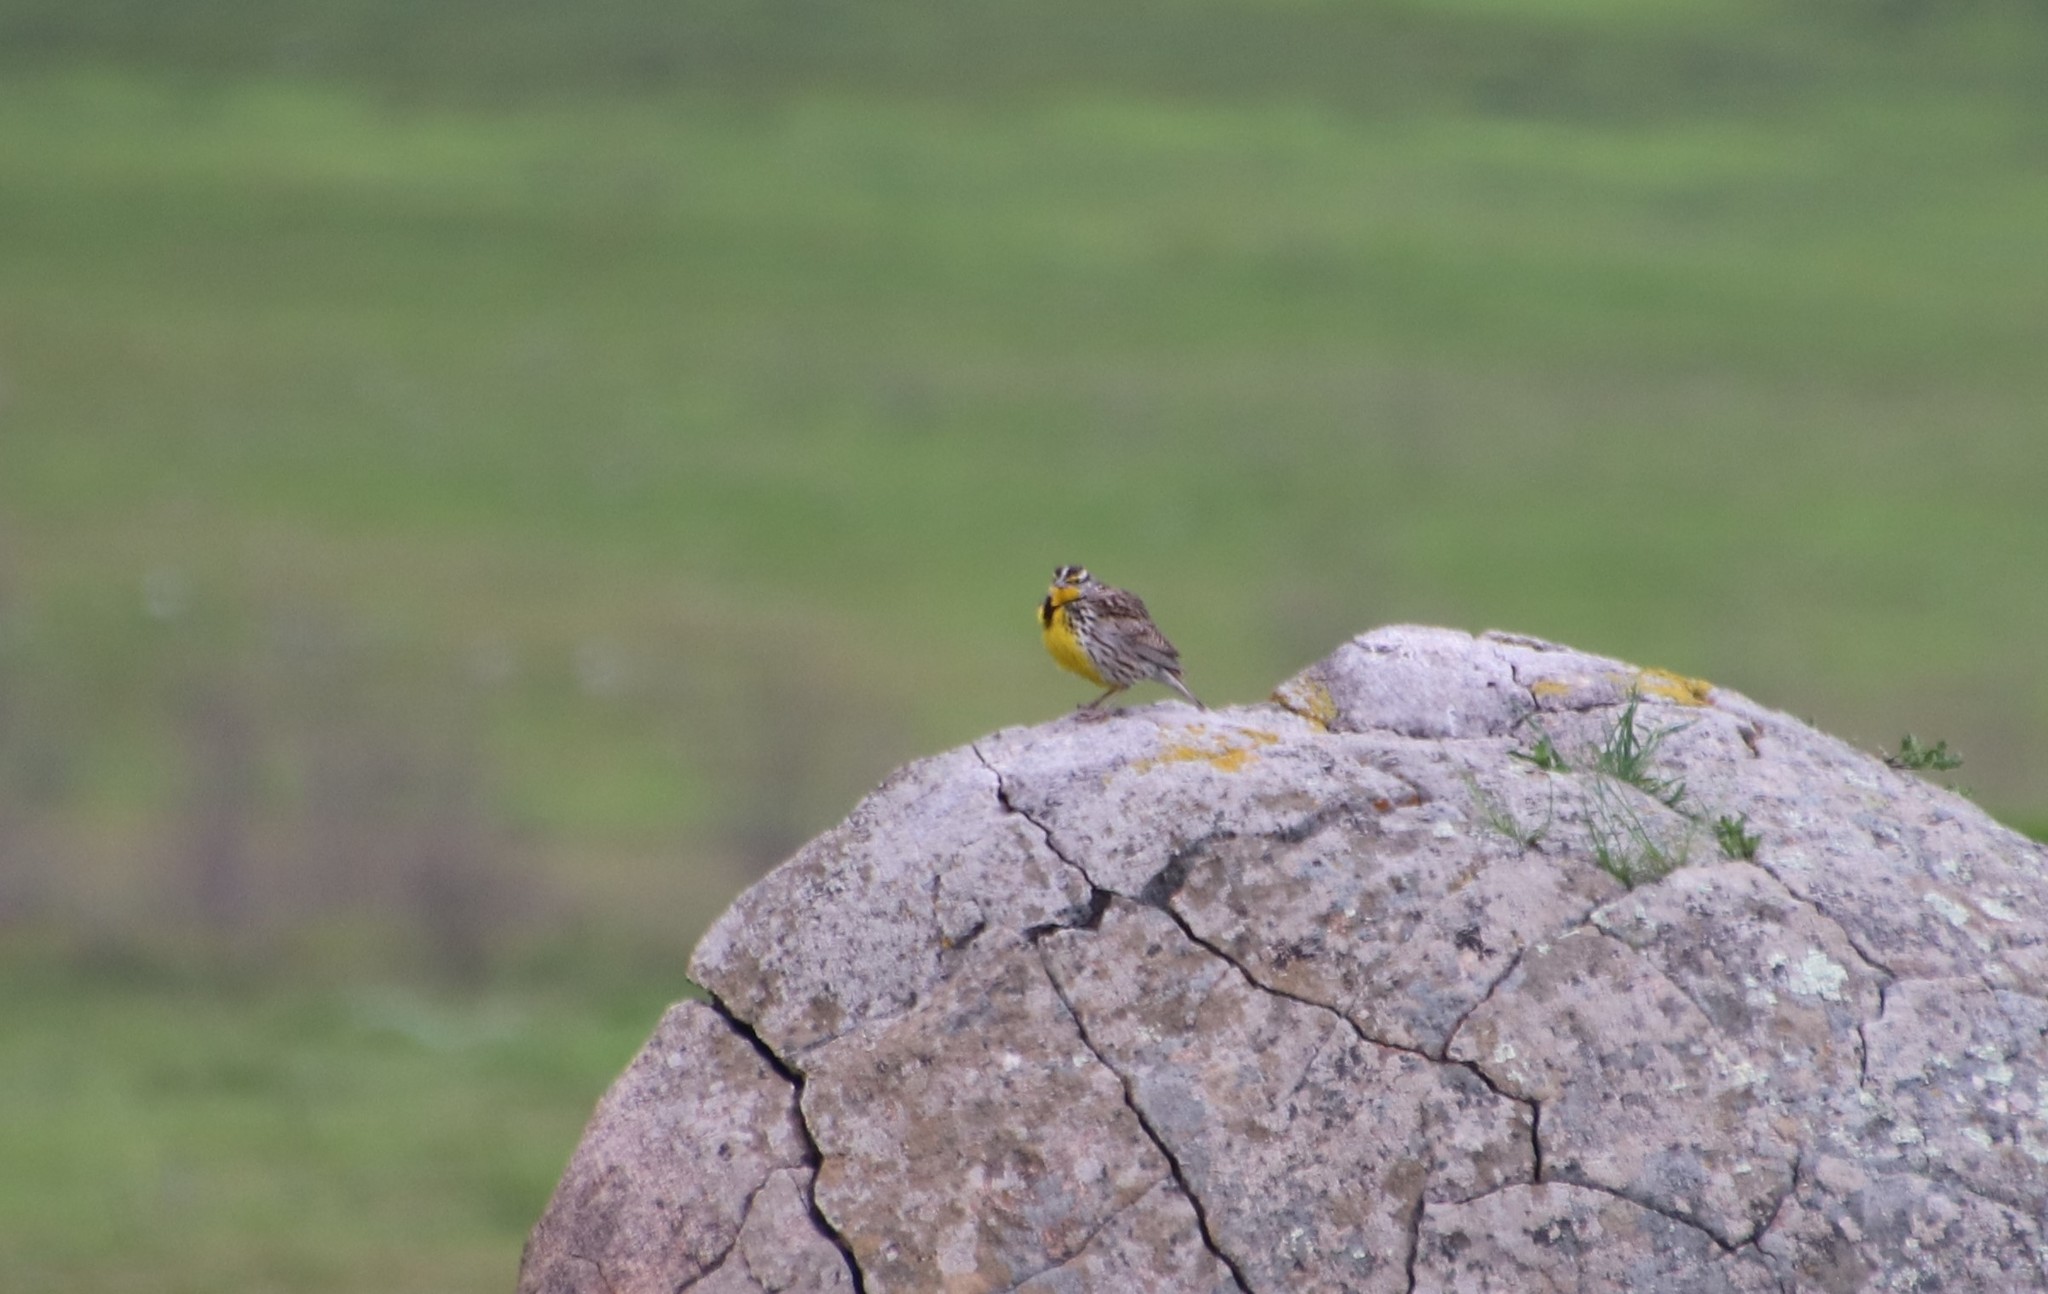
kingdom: Animalia
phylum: Chordata
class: Aves
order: Passeriformes
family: Icteridae
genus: Sturnella
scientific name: Sturnella neglecta
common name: Western meadowlark
